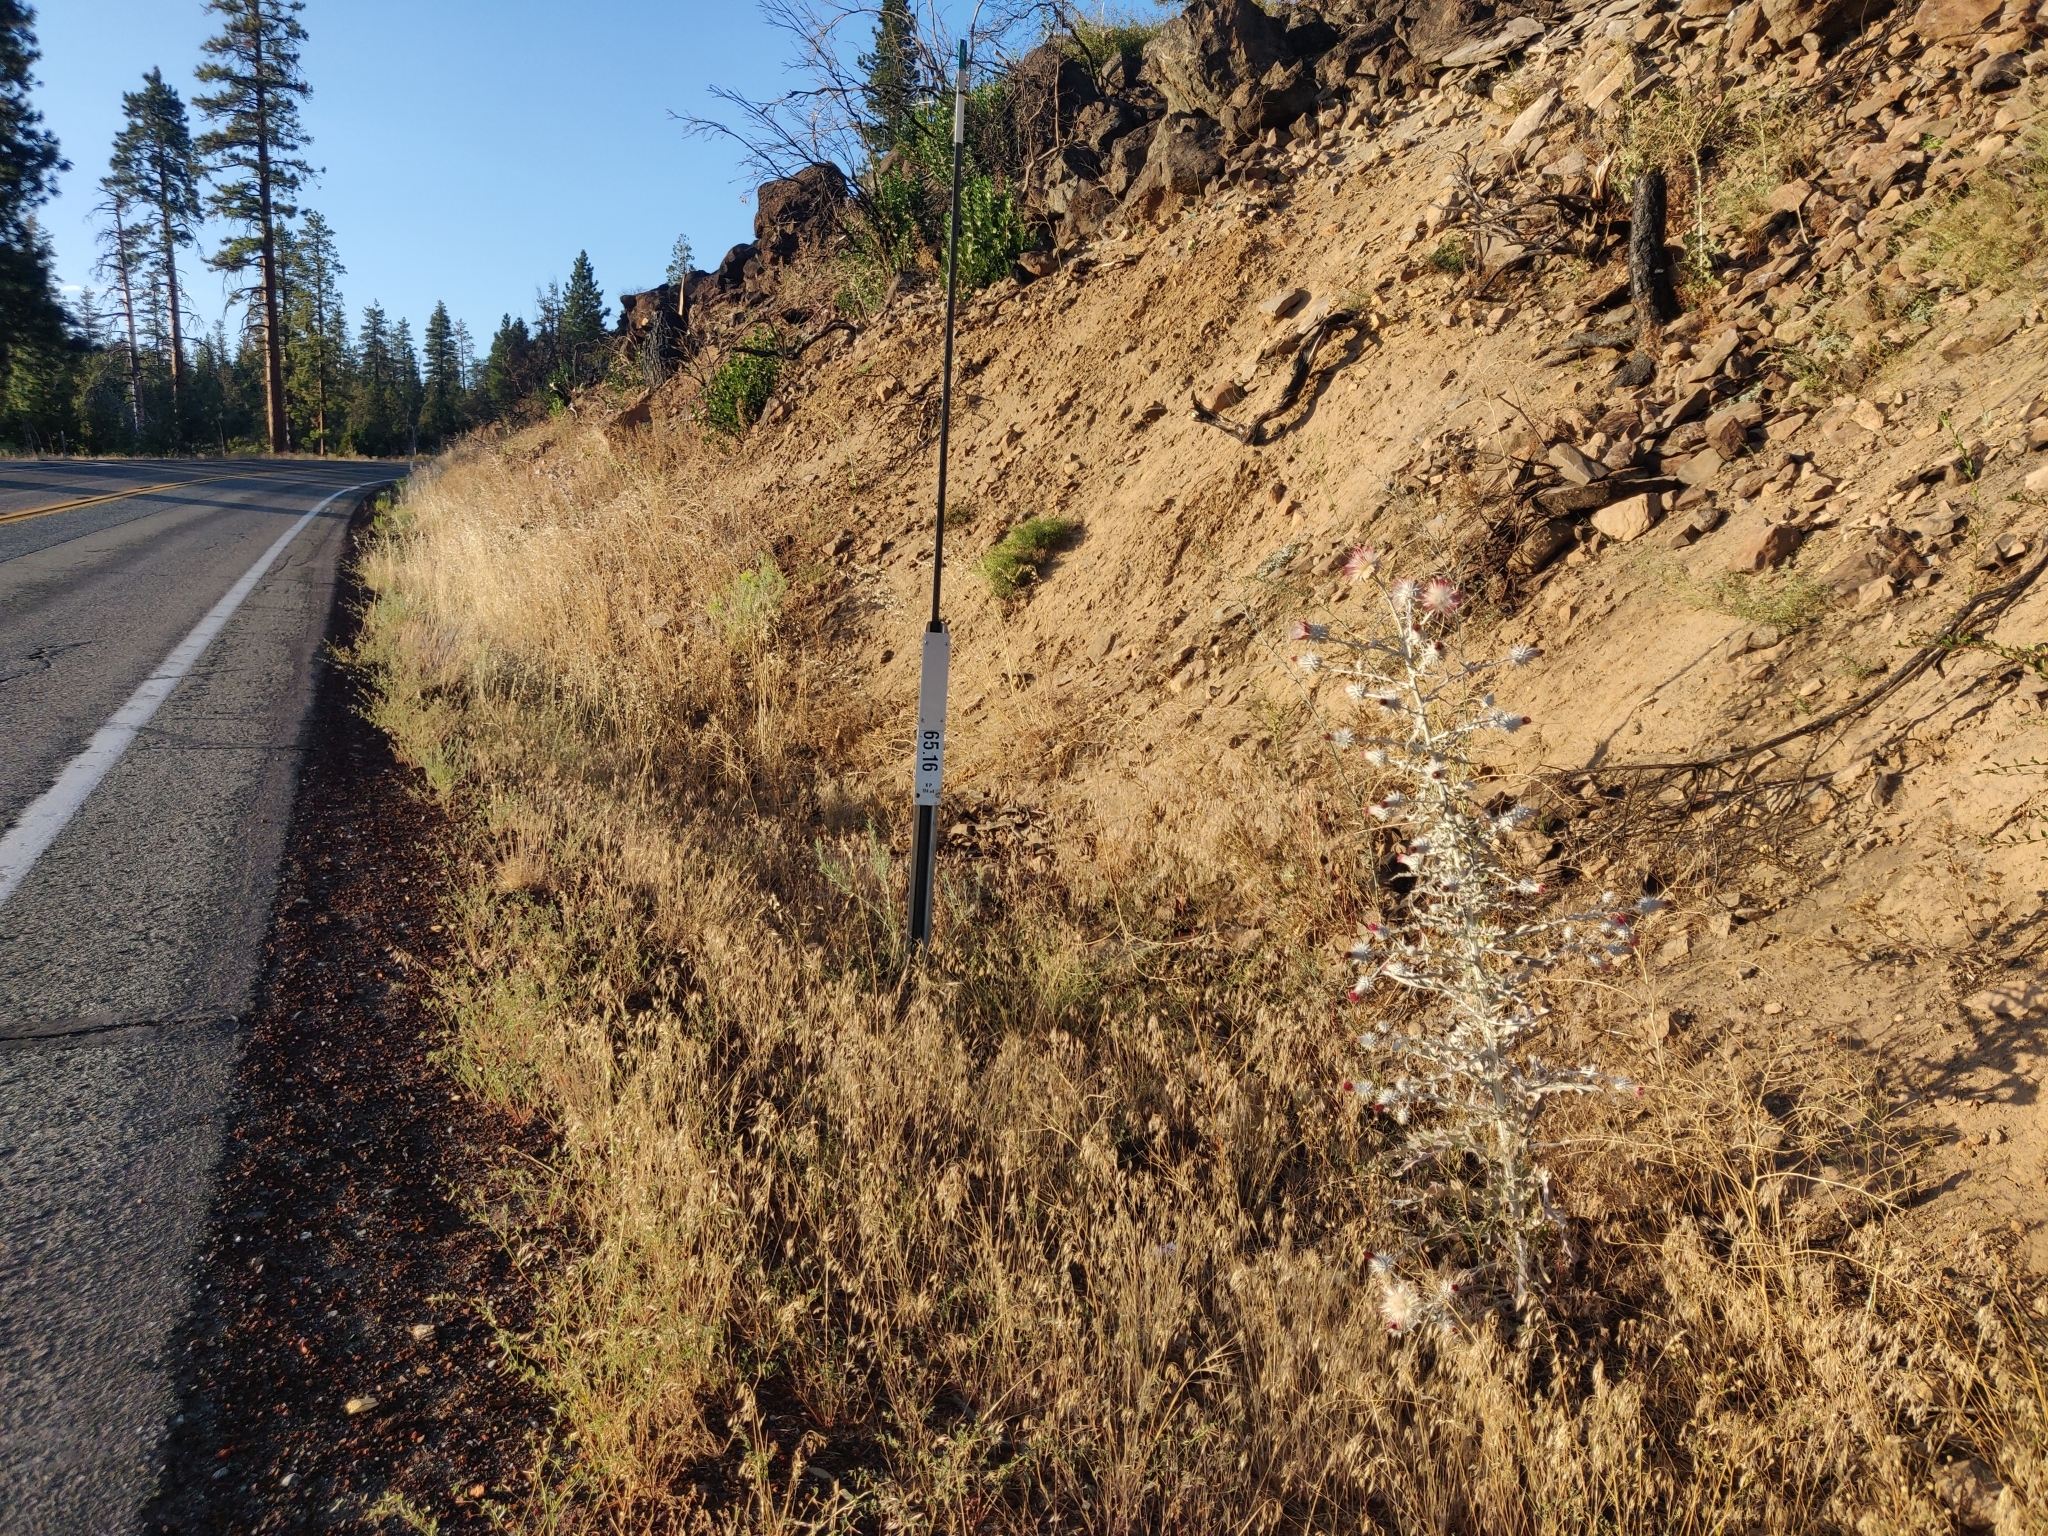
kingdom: Plantae
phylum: Tracheophyta
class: Magnoliopsida
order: Asterales
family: Asteraceae
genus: Cirsium
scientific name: Cirsium occidentale
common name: Western thistle
